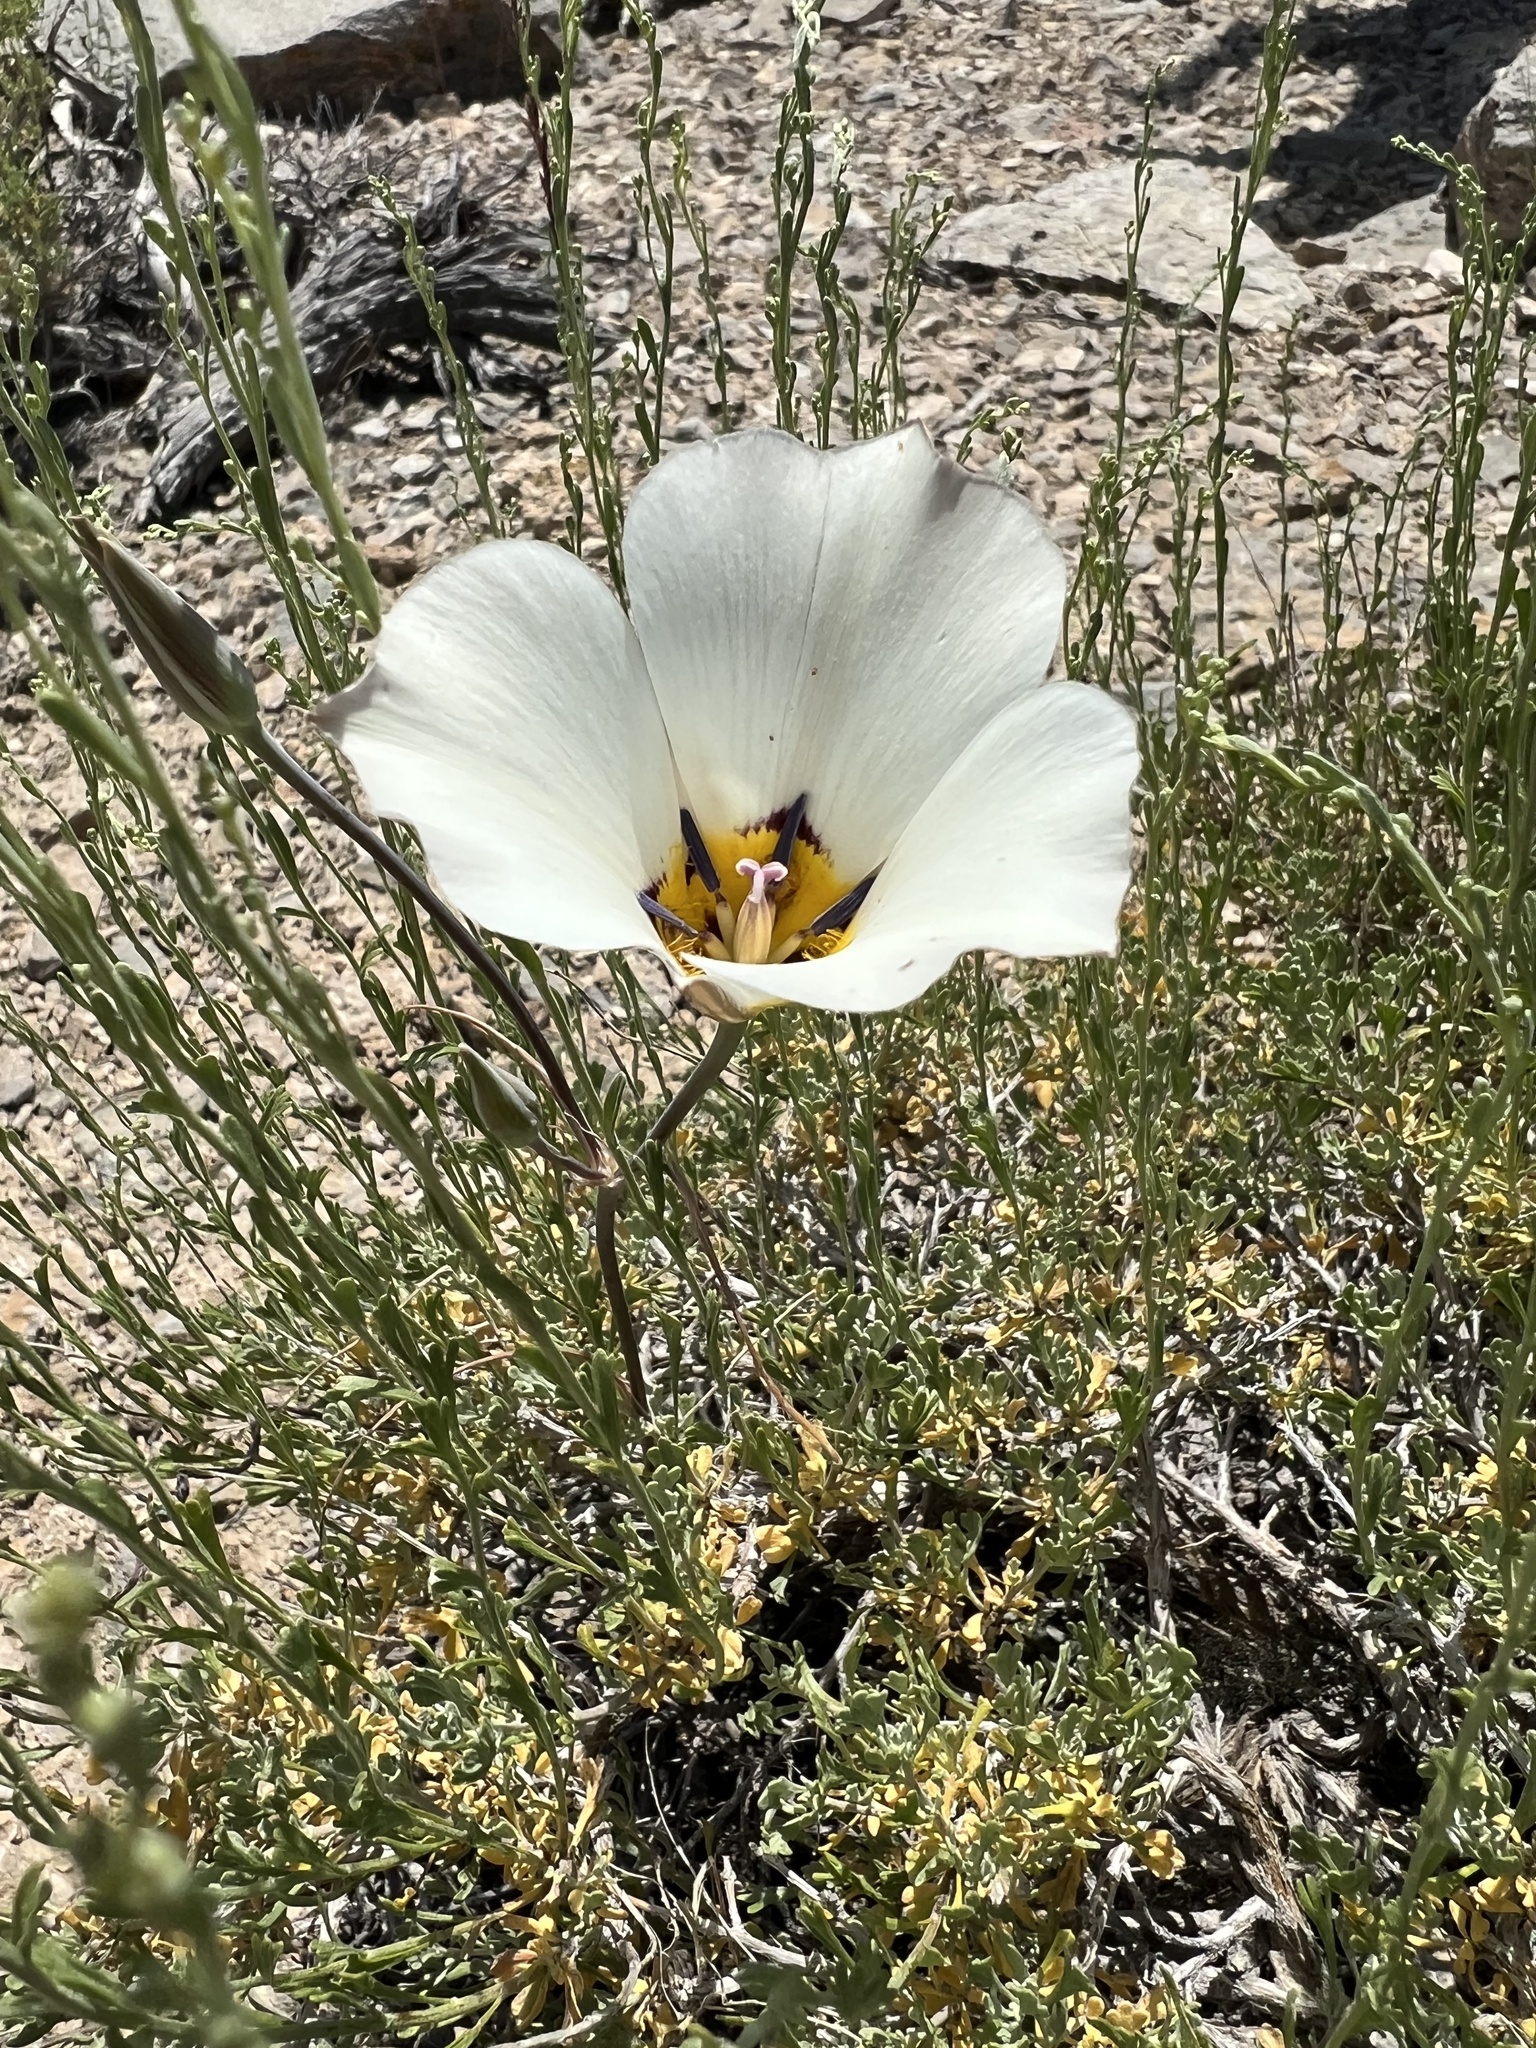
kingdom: Plantae
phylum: Tracheophyta
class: Liliopsida
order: Liliales
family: Liliaceae
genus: Calochortus
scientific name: Calochortus bruneaunis
